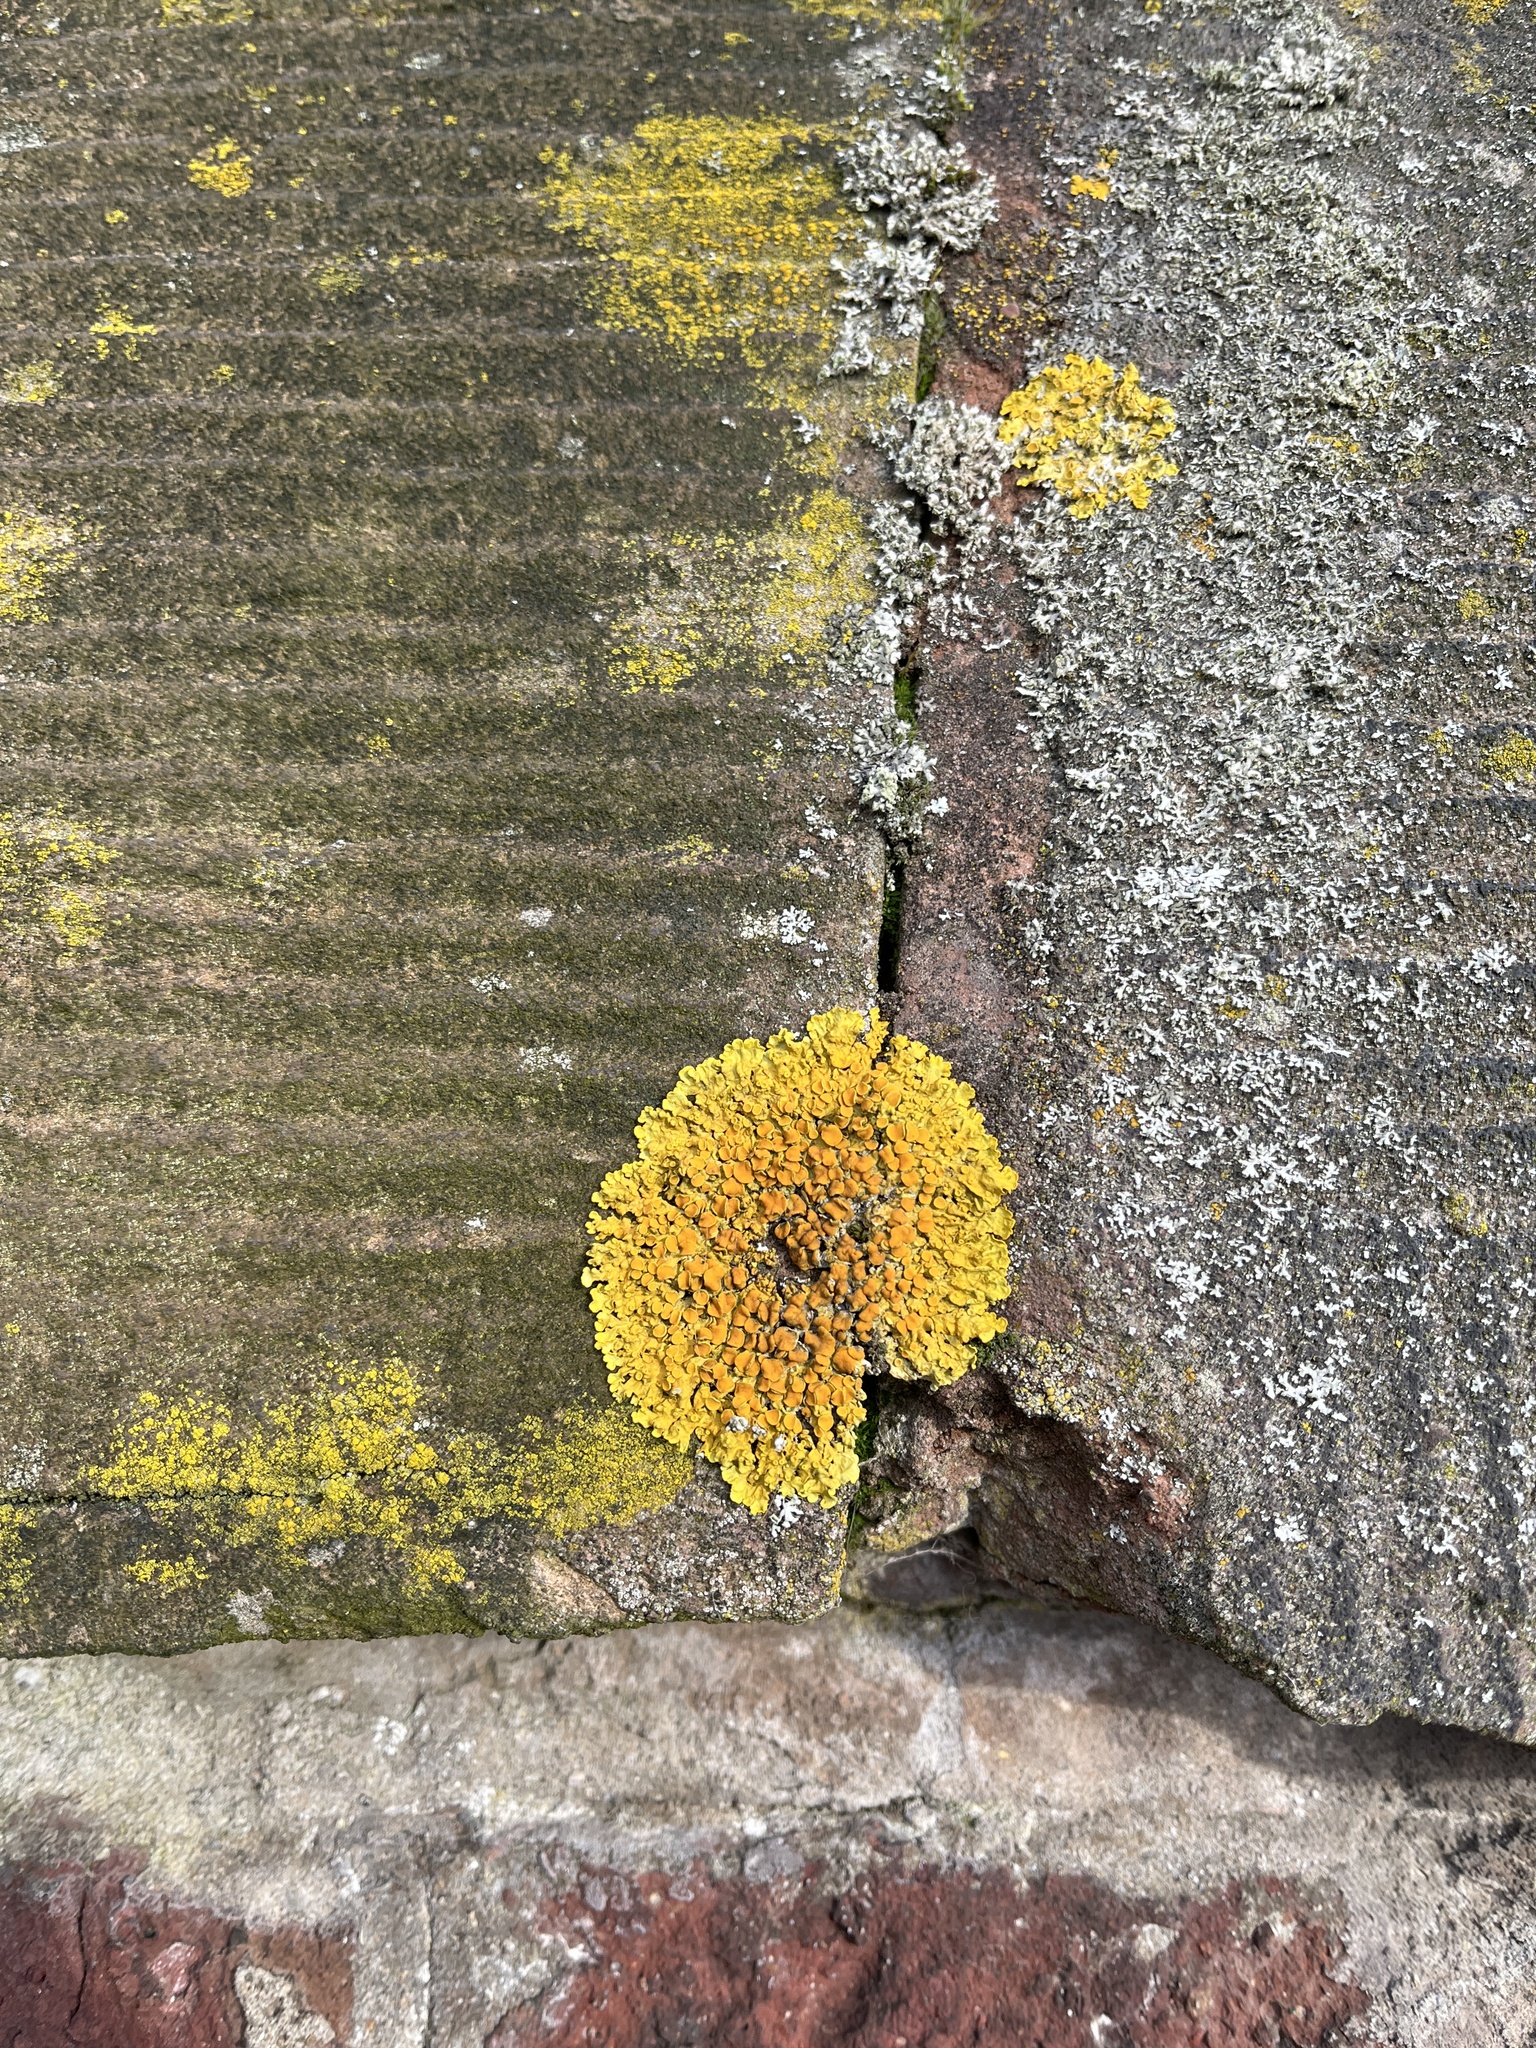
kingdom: Fungi
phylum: Ascomycota
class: Lecanoromycetes
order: Teloschistales
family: Teloschistaceae
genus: Xanthoria
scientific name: Xanthoria parietina
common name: Common orange lichen
